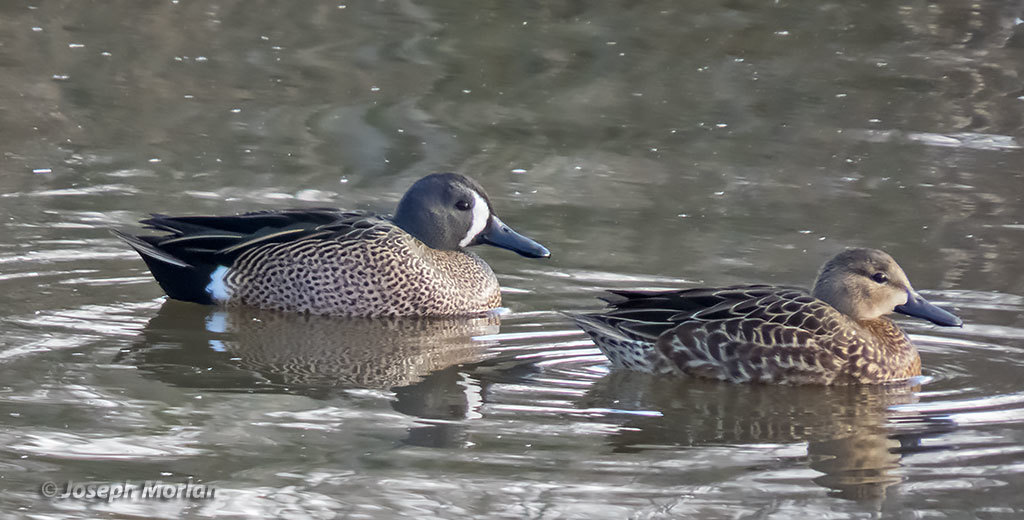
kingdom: Animalia
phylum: Chordata
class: Aves
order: Anseriformes
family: Anatidae
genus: Spatula
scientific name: Spatula discors
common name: Blue-winged teal
